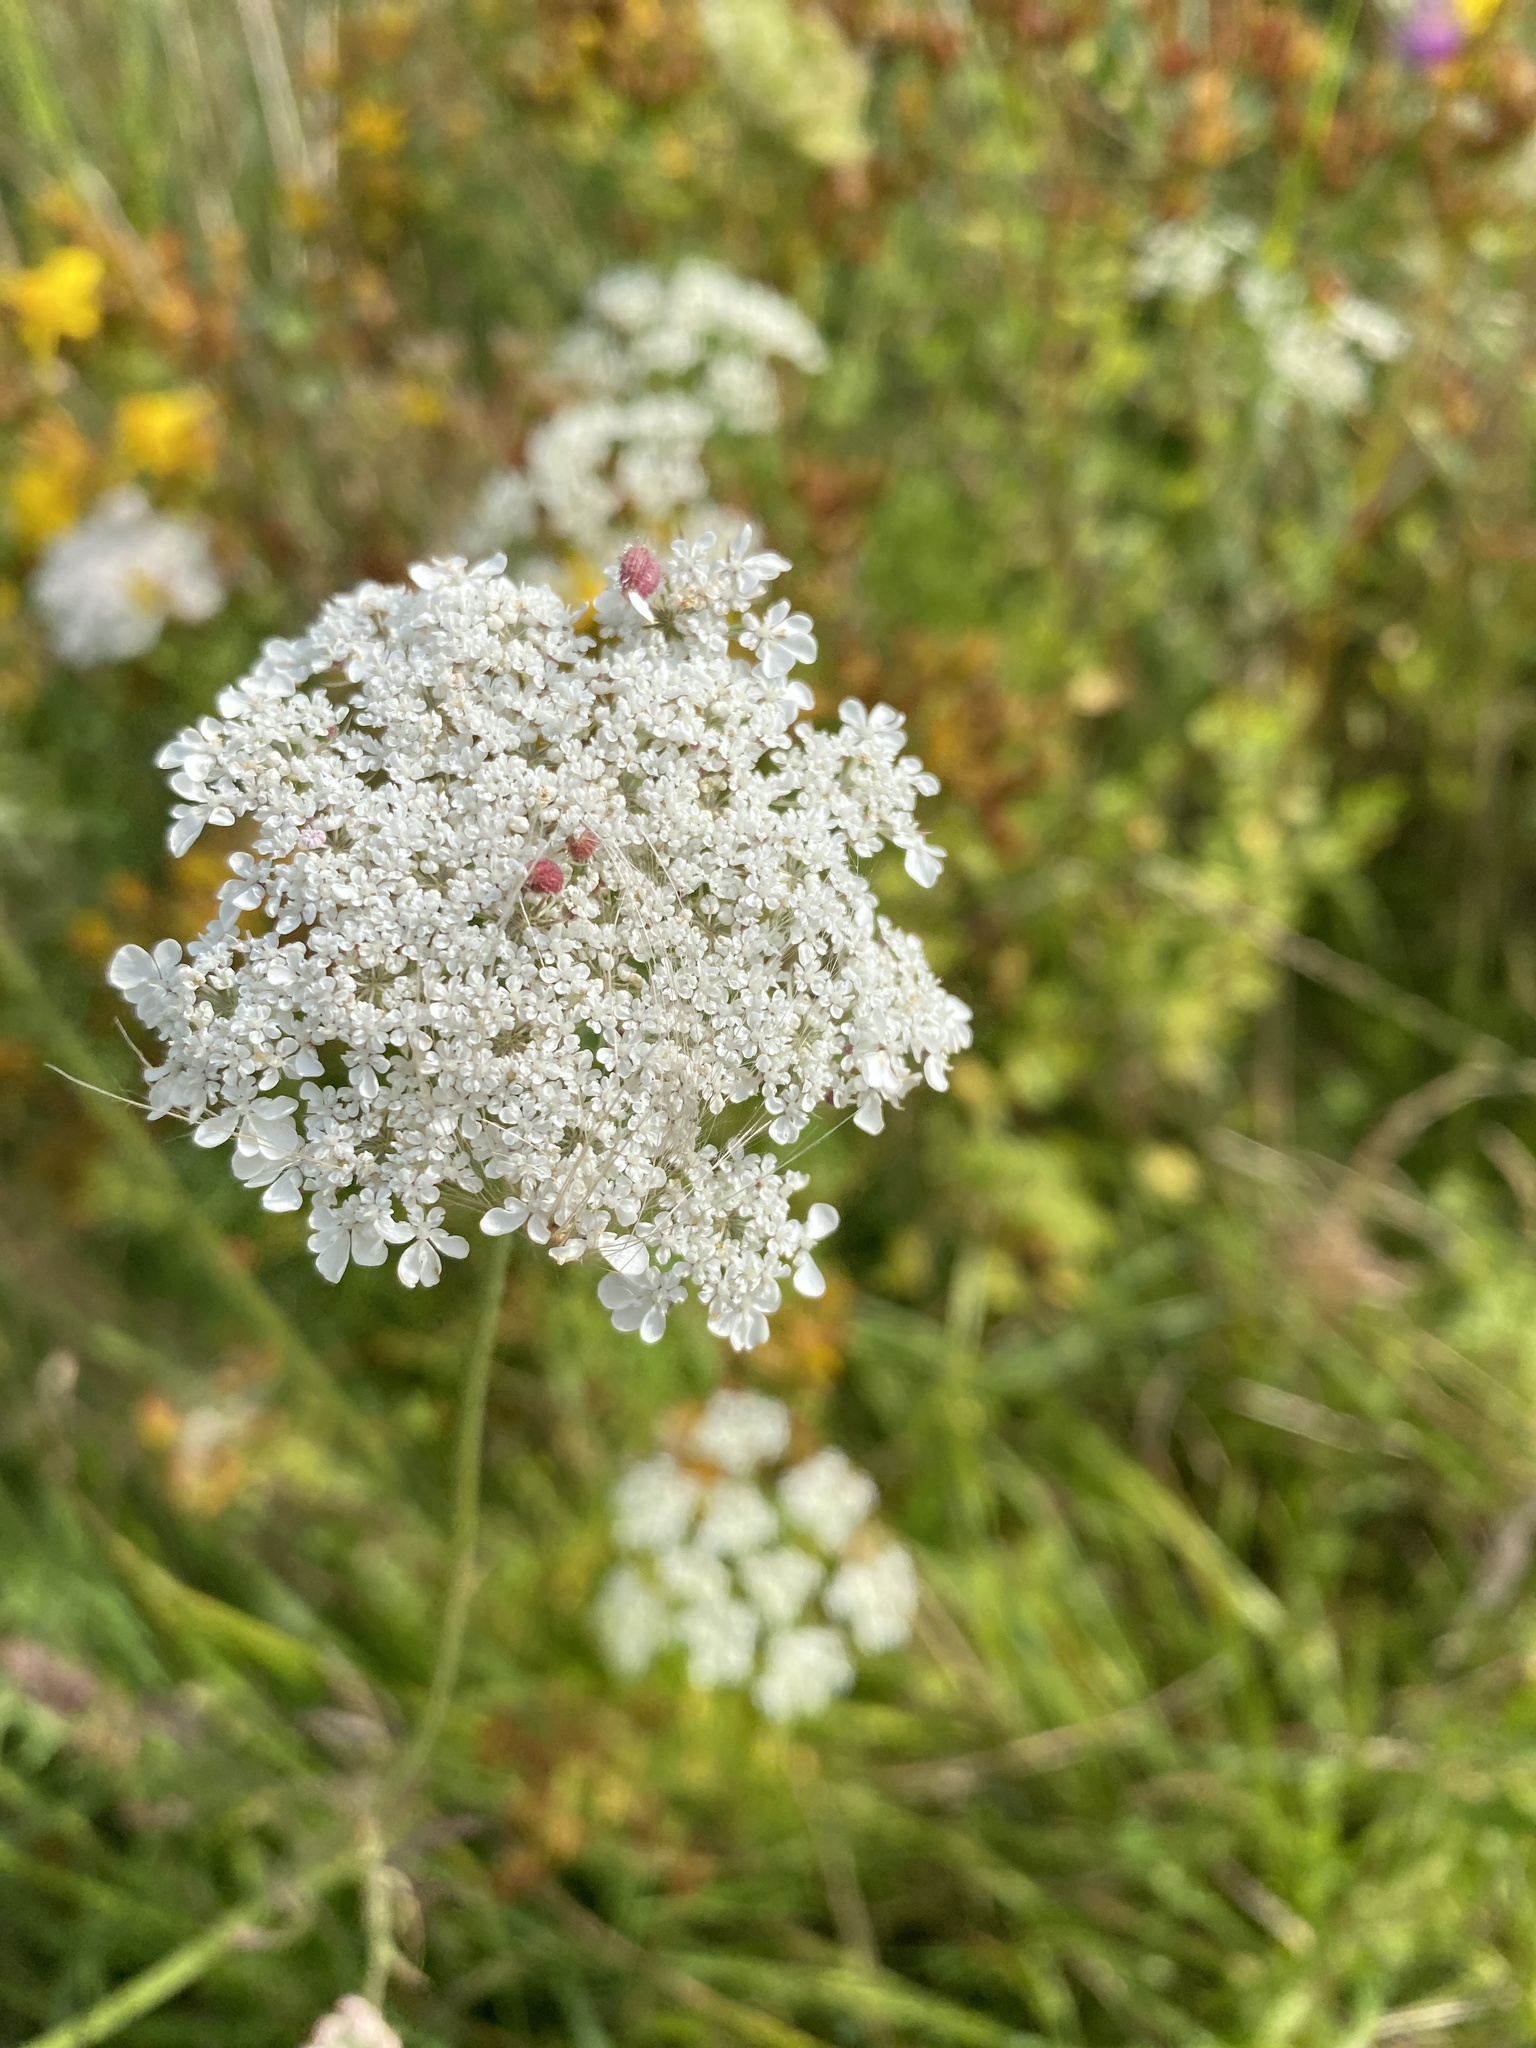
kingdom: Plantae
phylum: Tracheophyta
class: Magnoliopsida
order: Apiales
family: Apiaceae
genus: Daucus
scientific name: Daucus carota
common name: Wild carrot
